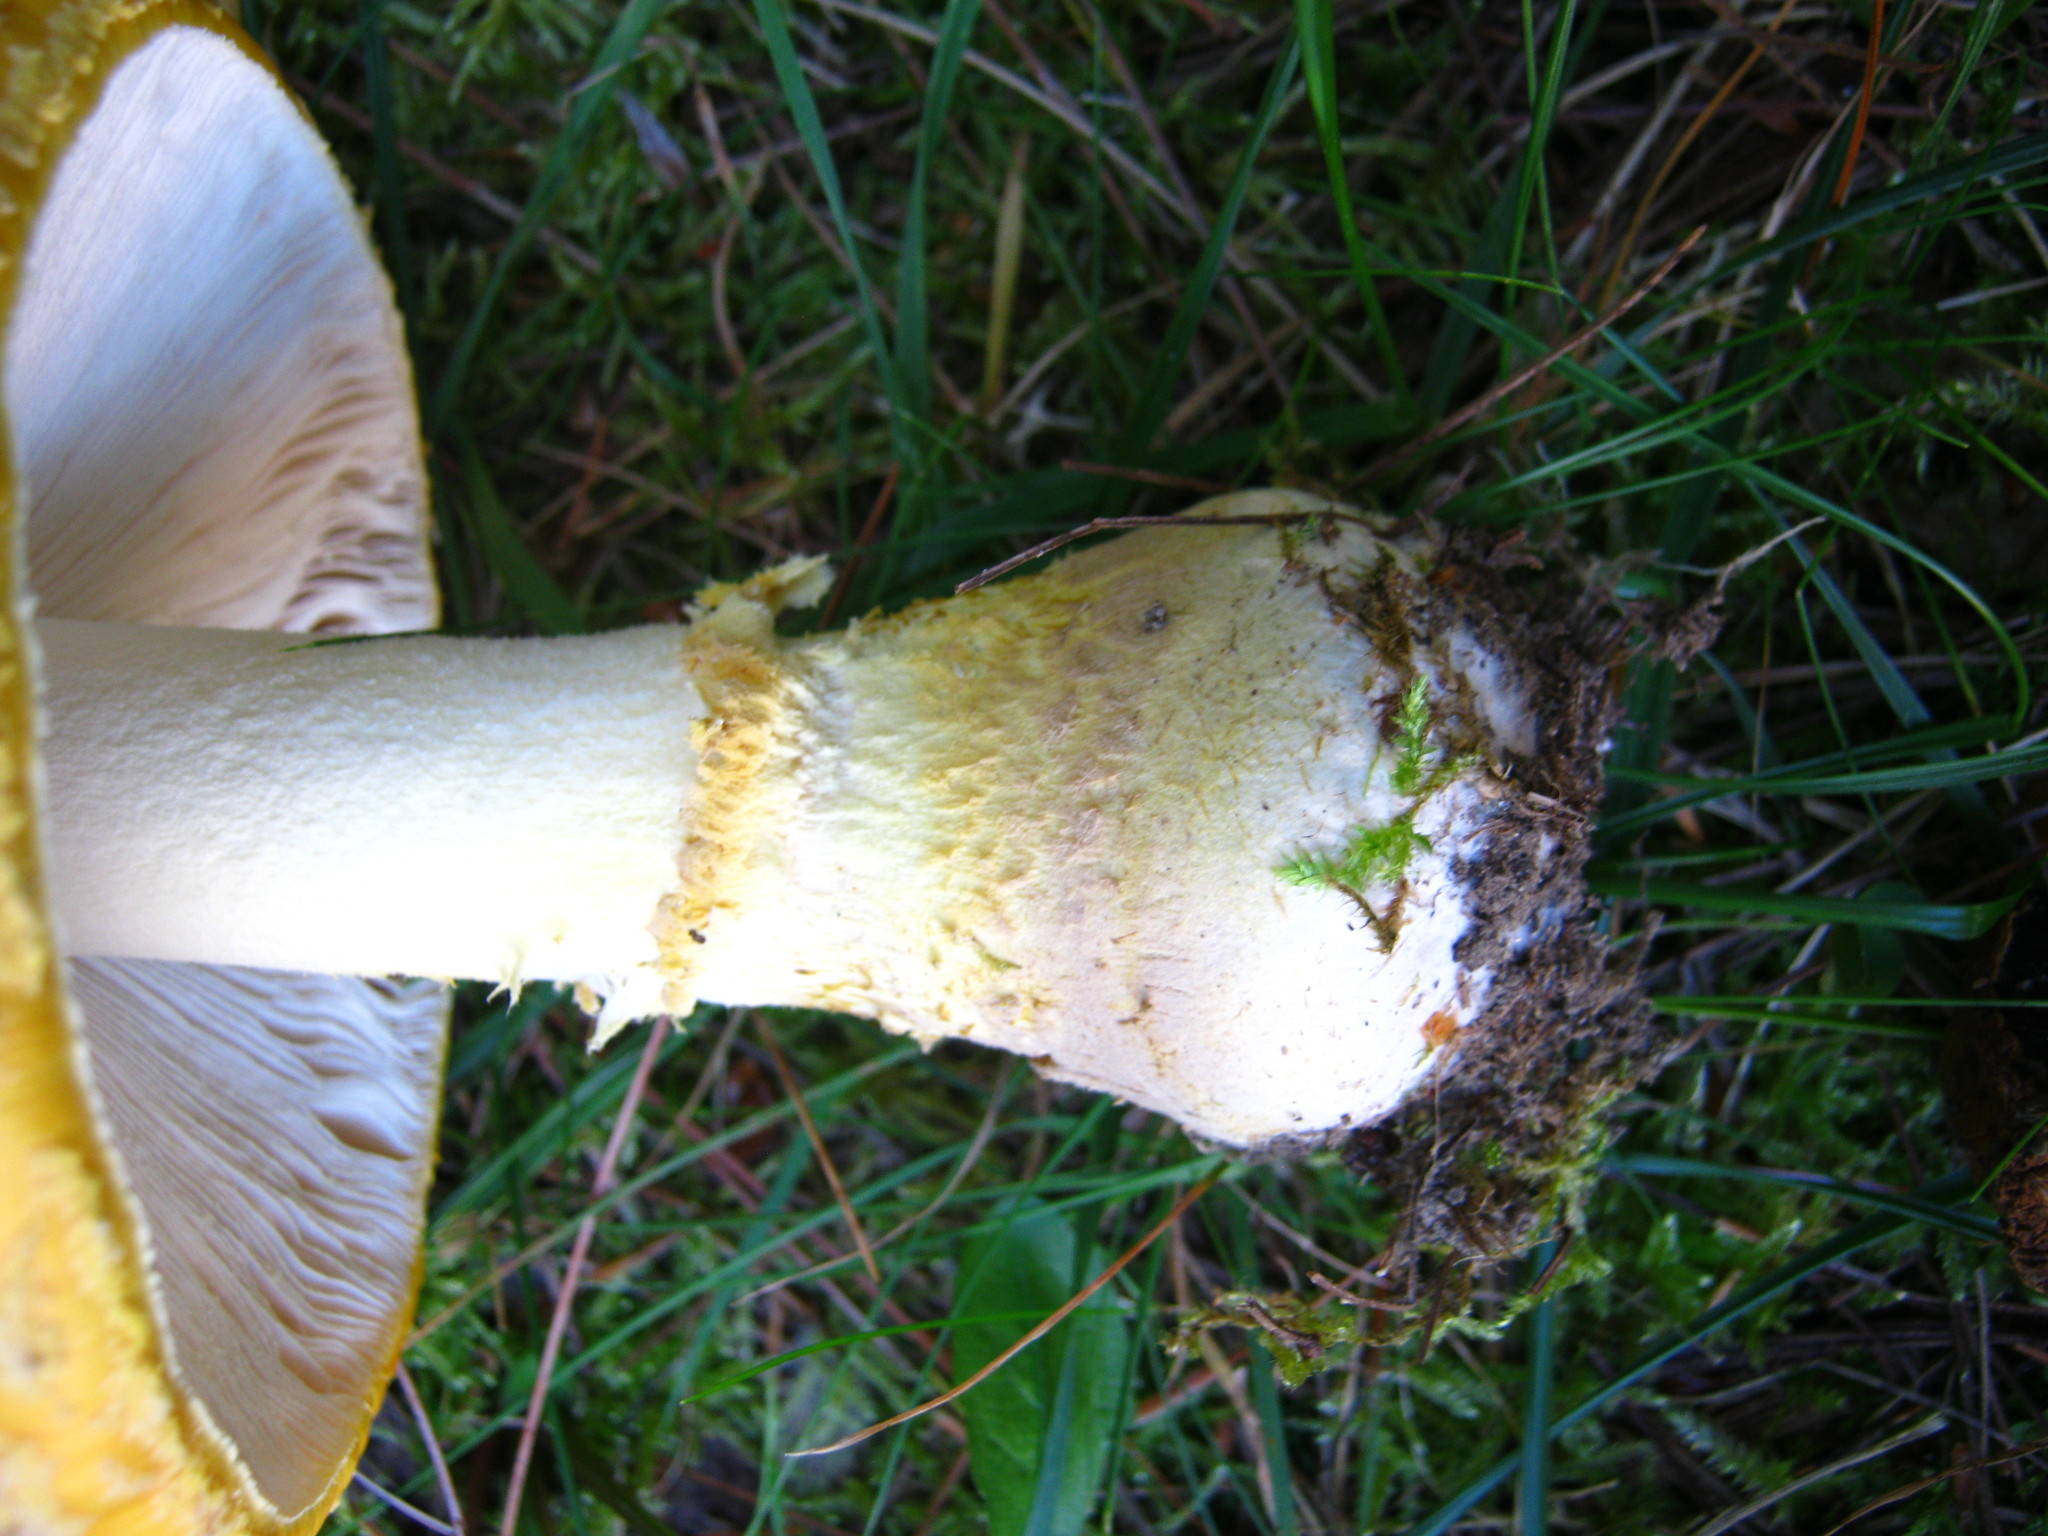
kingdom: Fungi
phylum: Basidiomycota
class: Agaricomycetes
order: Agaricales
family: Amanitaceae
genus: Amanita
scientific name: Amanita muscaria
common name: Fly agaric
